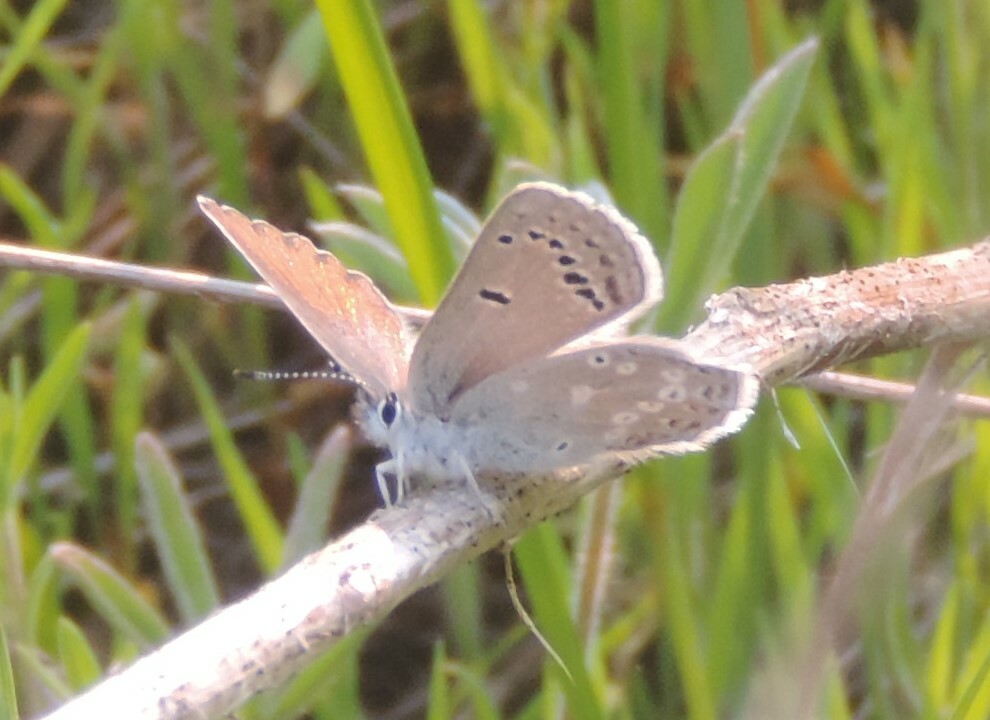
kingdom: Animalia
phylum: Arthropoda
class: Insecta
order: Lepidoptera
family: Lycaenidae
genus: Icaricia
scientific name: Icaricia icarioides
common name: Boisduval's blue
